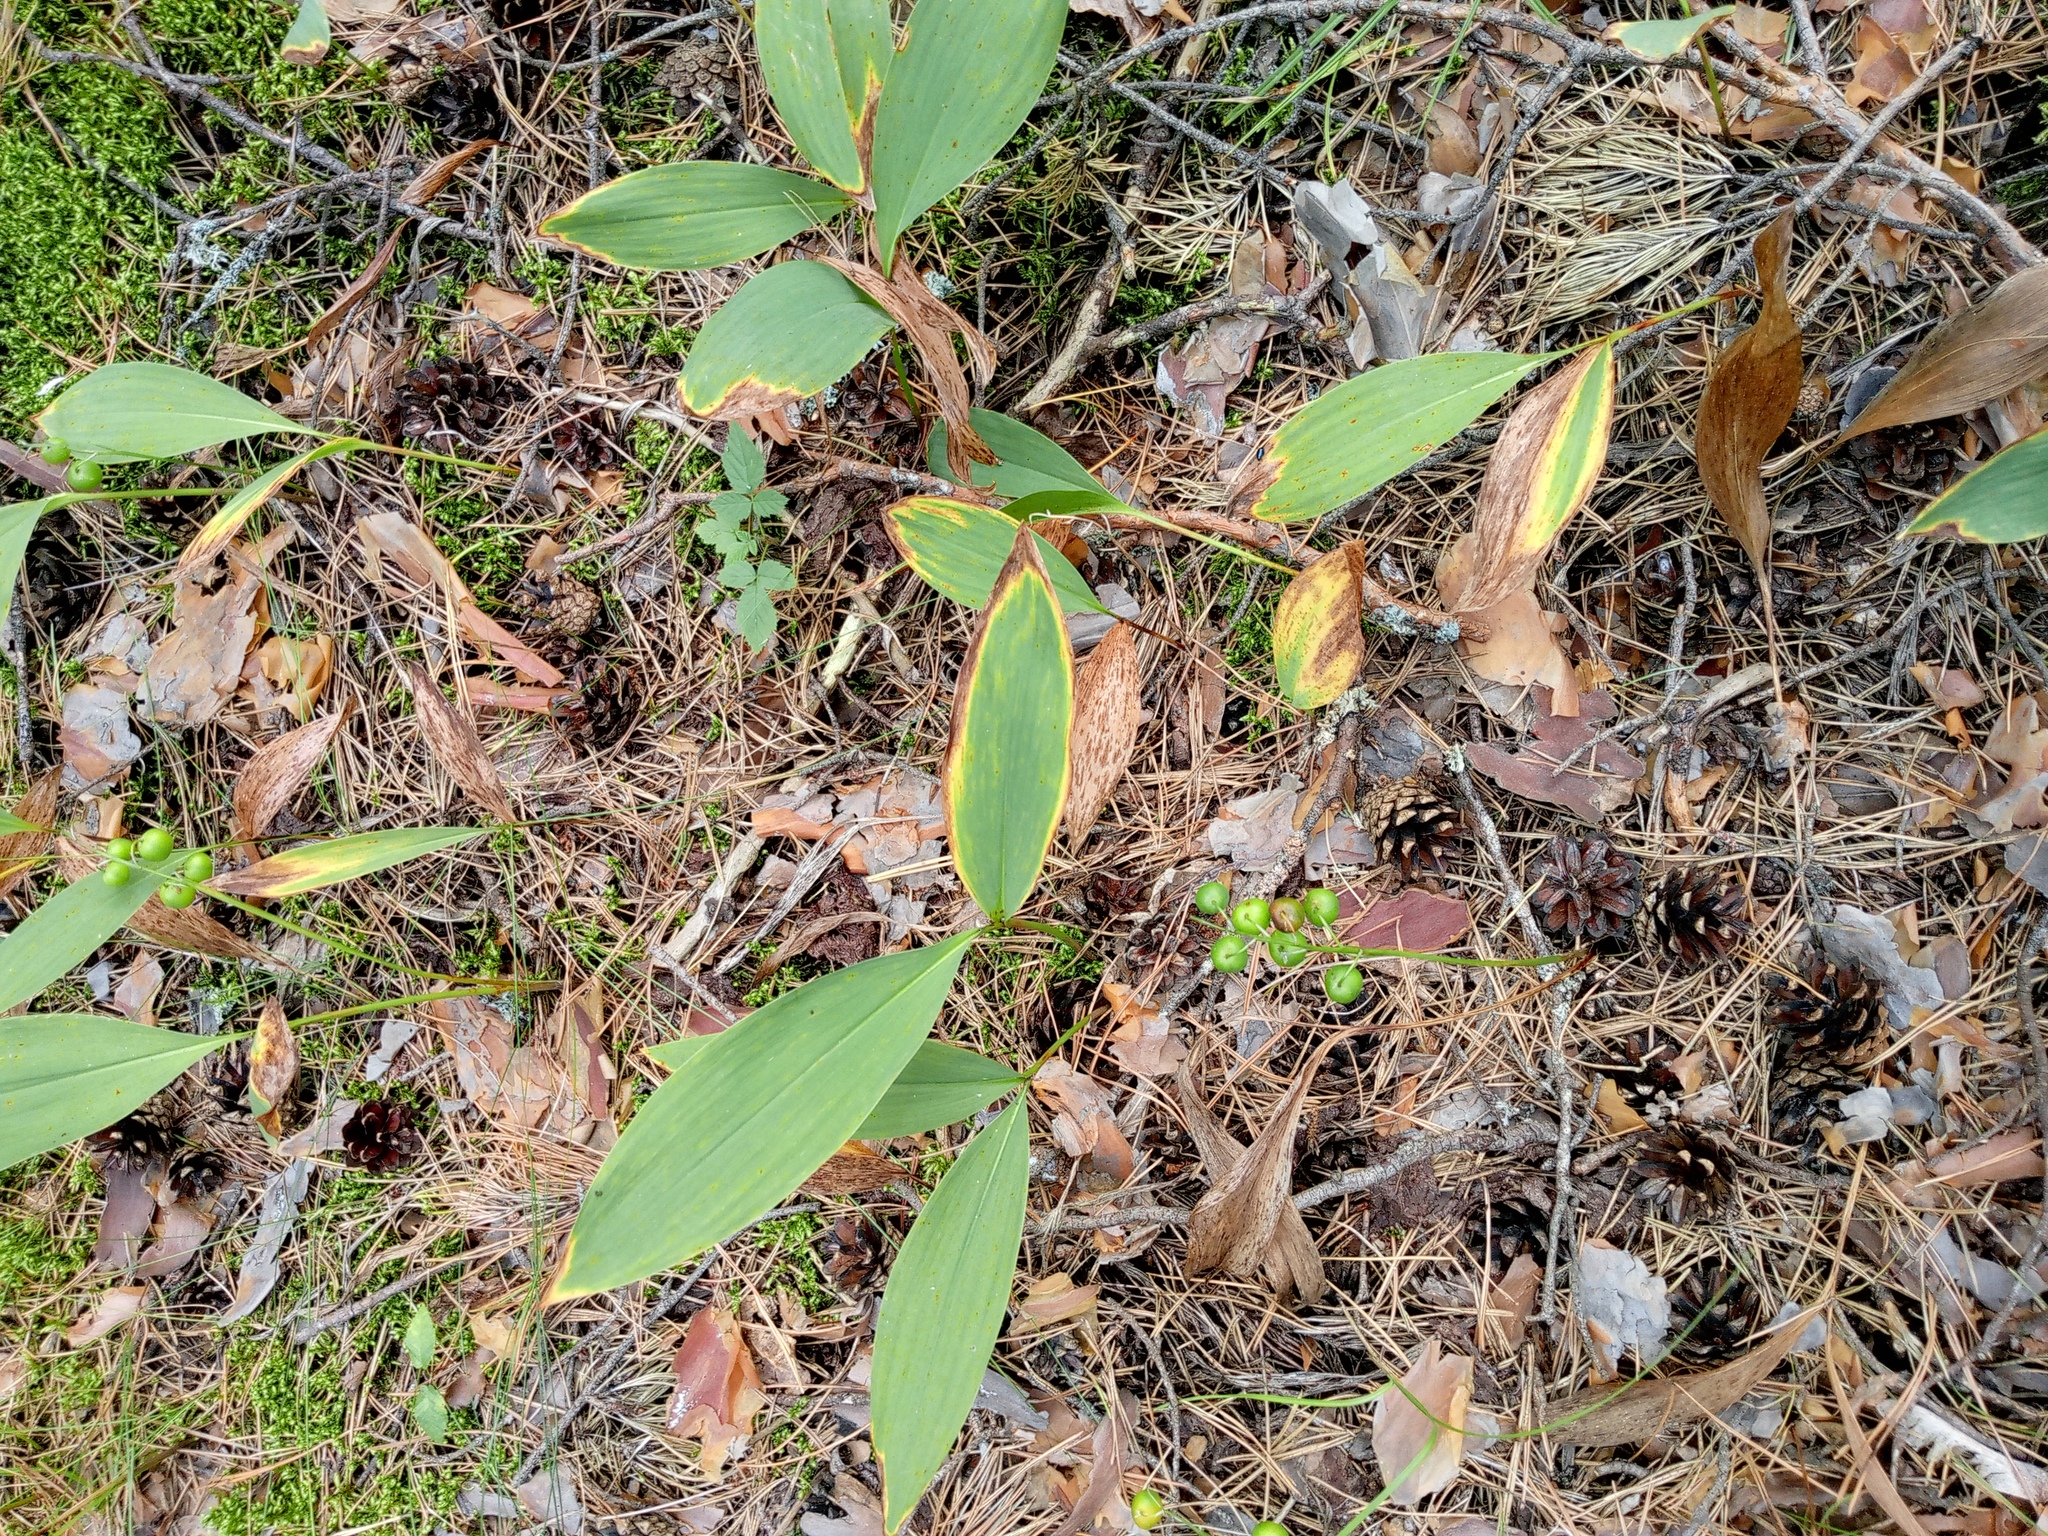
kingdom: Plantae
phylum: Tracheophyta
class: Liliopsida
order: Asparagales
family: Asparagaceae
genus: Convallaria
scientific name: Convallaria majalis
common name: Lily-of-the-valley
